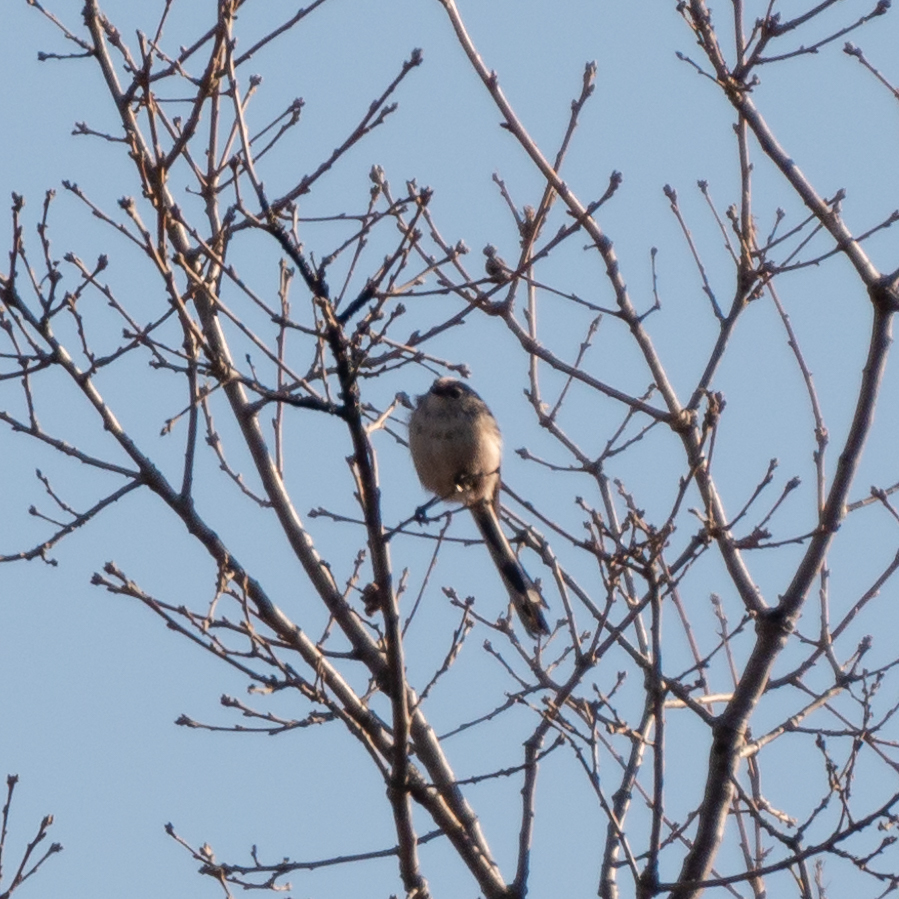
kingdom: Animalia
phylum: Chordata
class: Aves
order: Passeriformes
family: Aegithalidae
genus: Aegithalos
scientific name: Aegithalos caudatus
